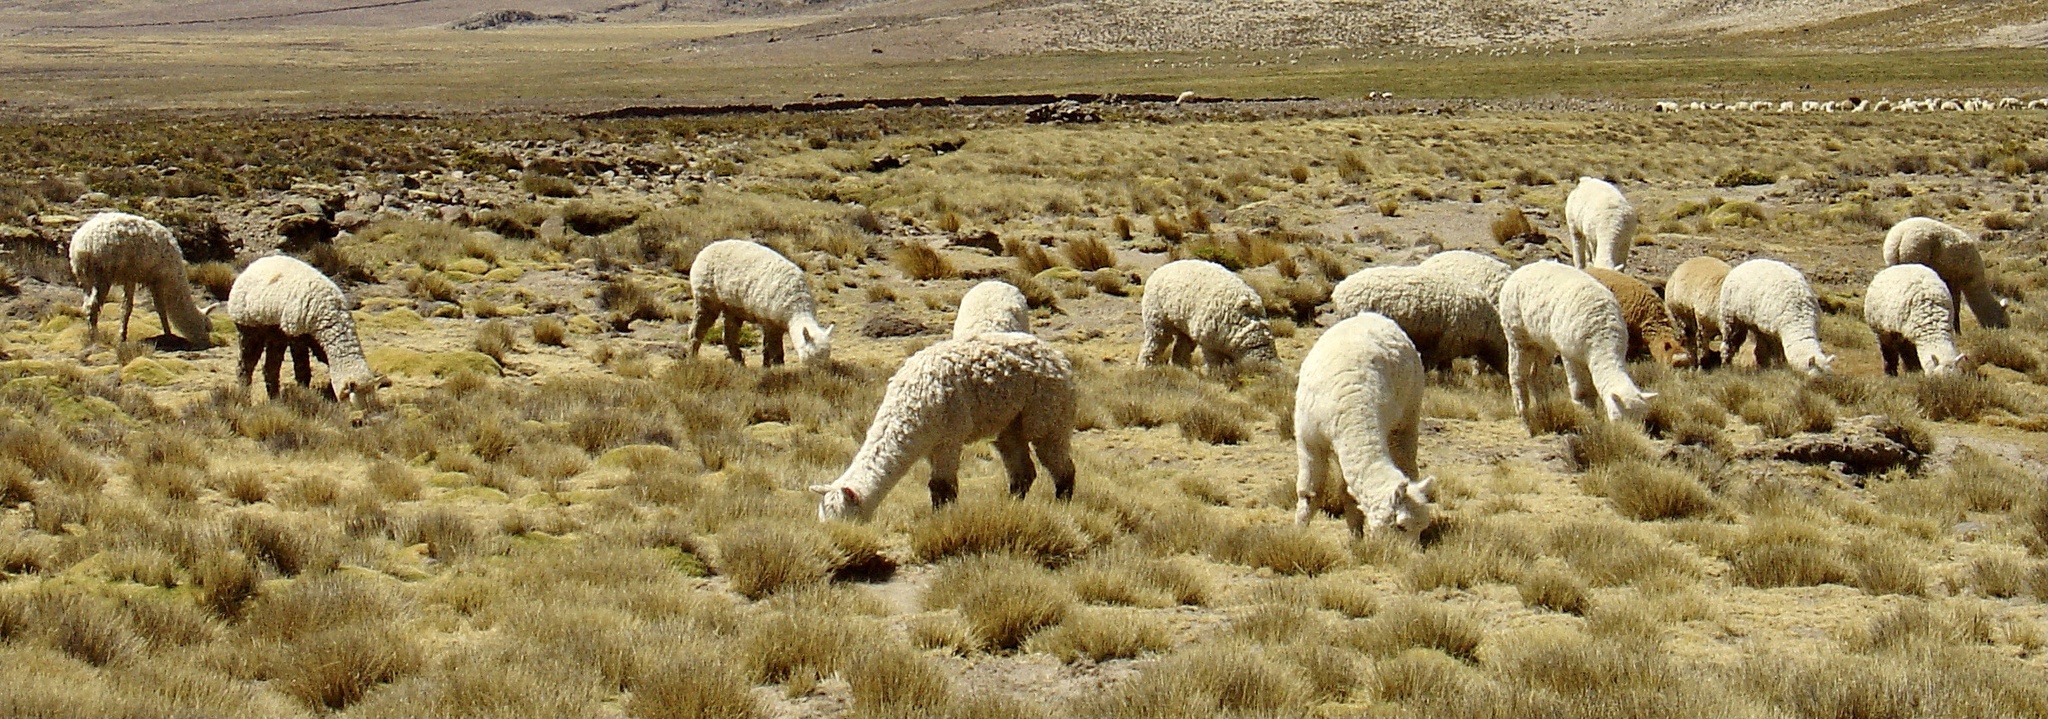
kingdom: Animalia
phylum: Chordata
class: Mammalia
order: Artiodactyla
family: Camelidae
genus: Vicugna
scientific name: Vicugna pacos
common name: Alpaca
